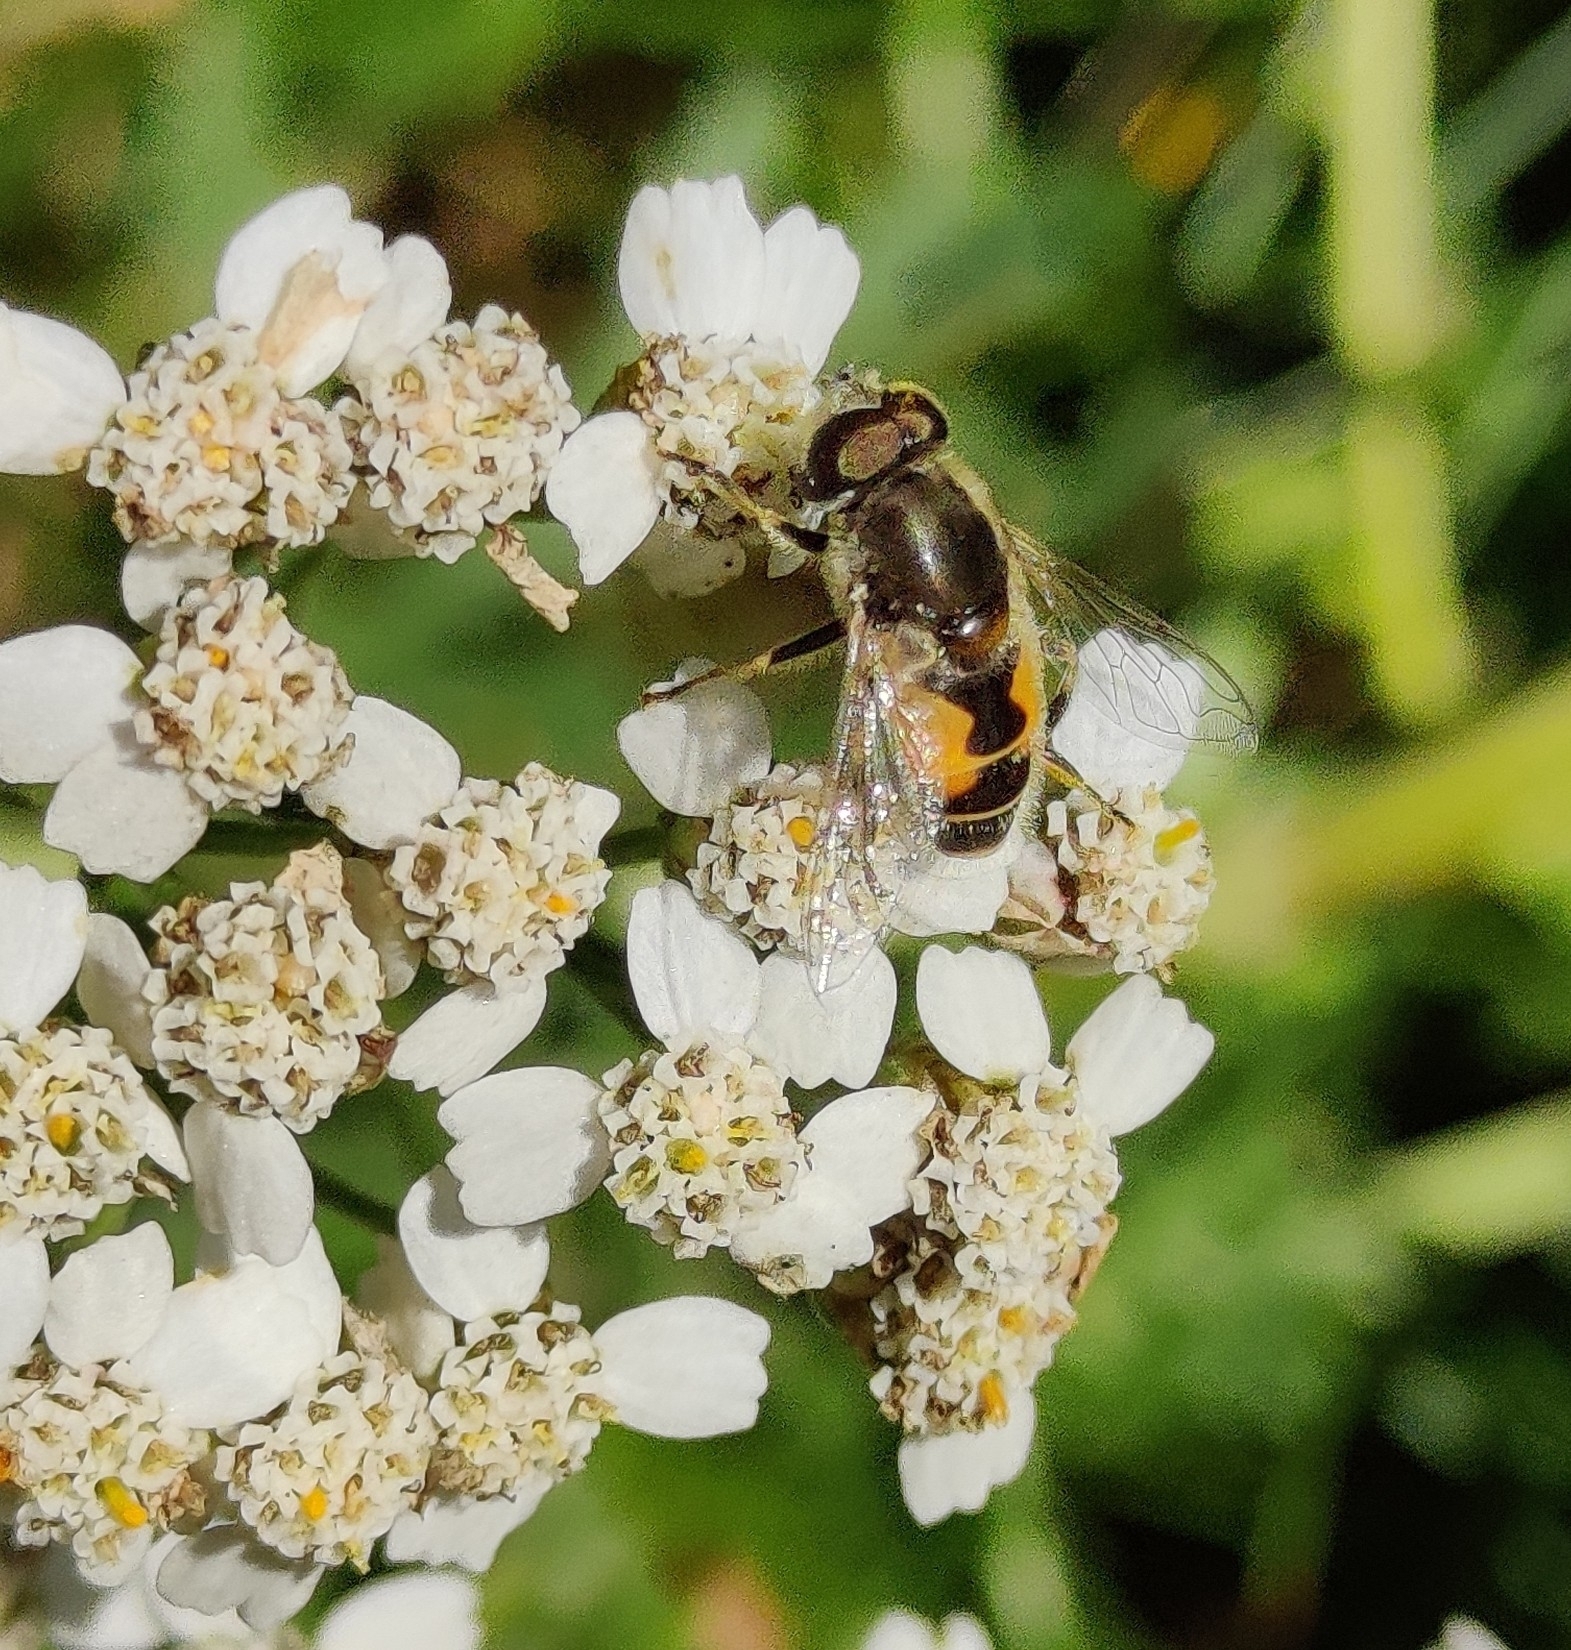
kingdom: Animalia
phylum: Arthropoda
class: Insecta
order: Diptera
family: Syrphidae
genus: Eristalis
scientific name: Eristalis arbustorum
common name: Hover fly
